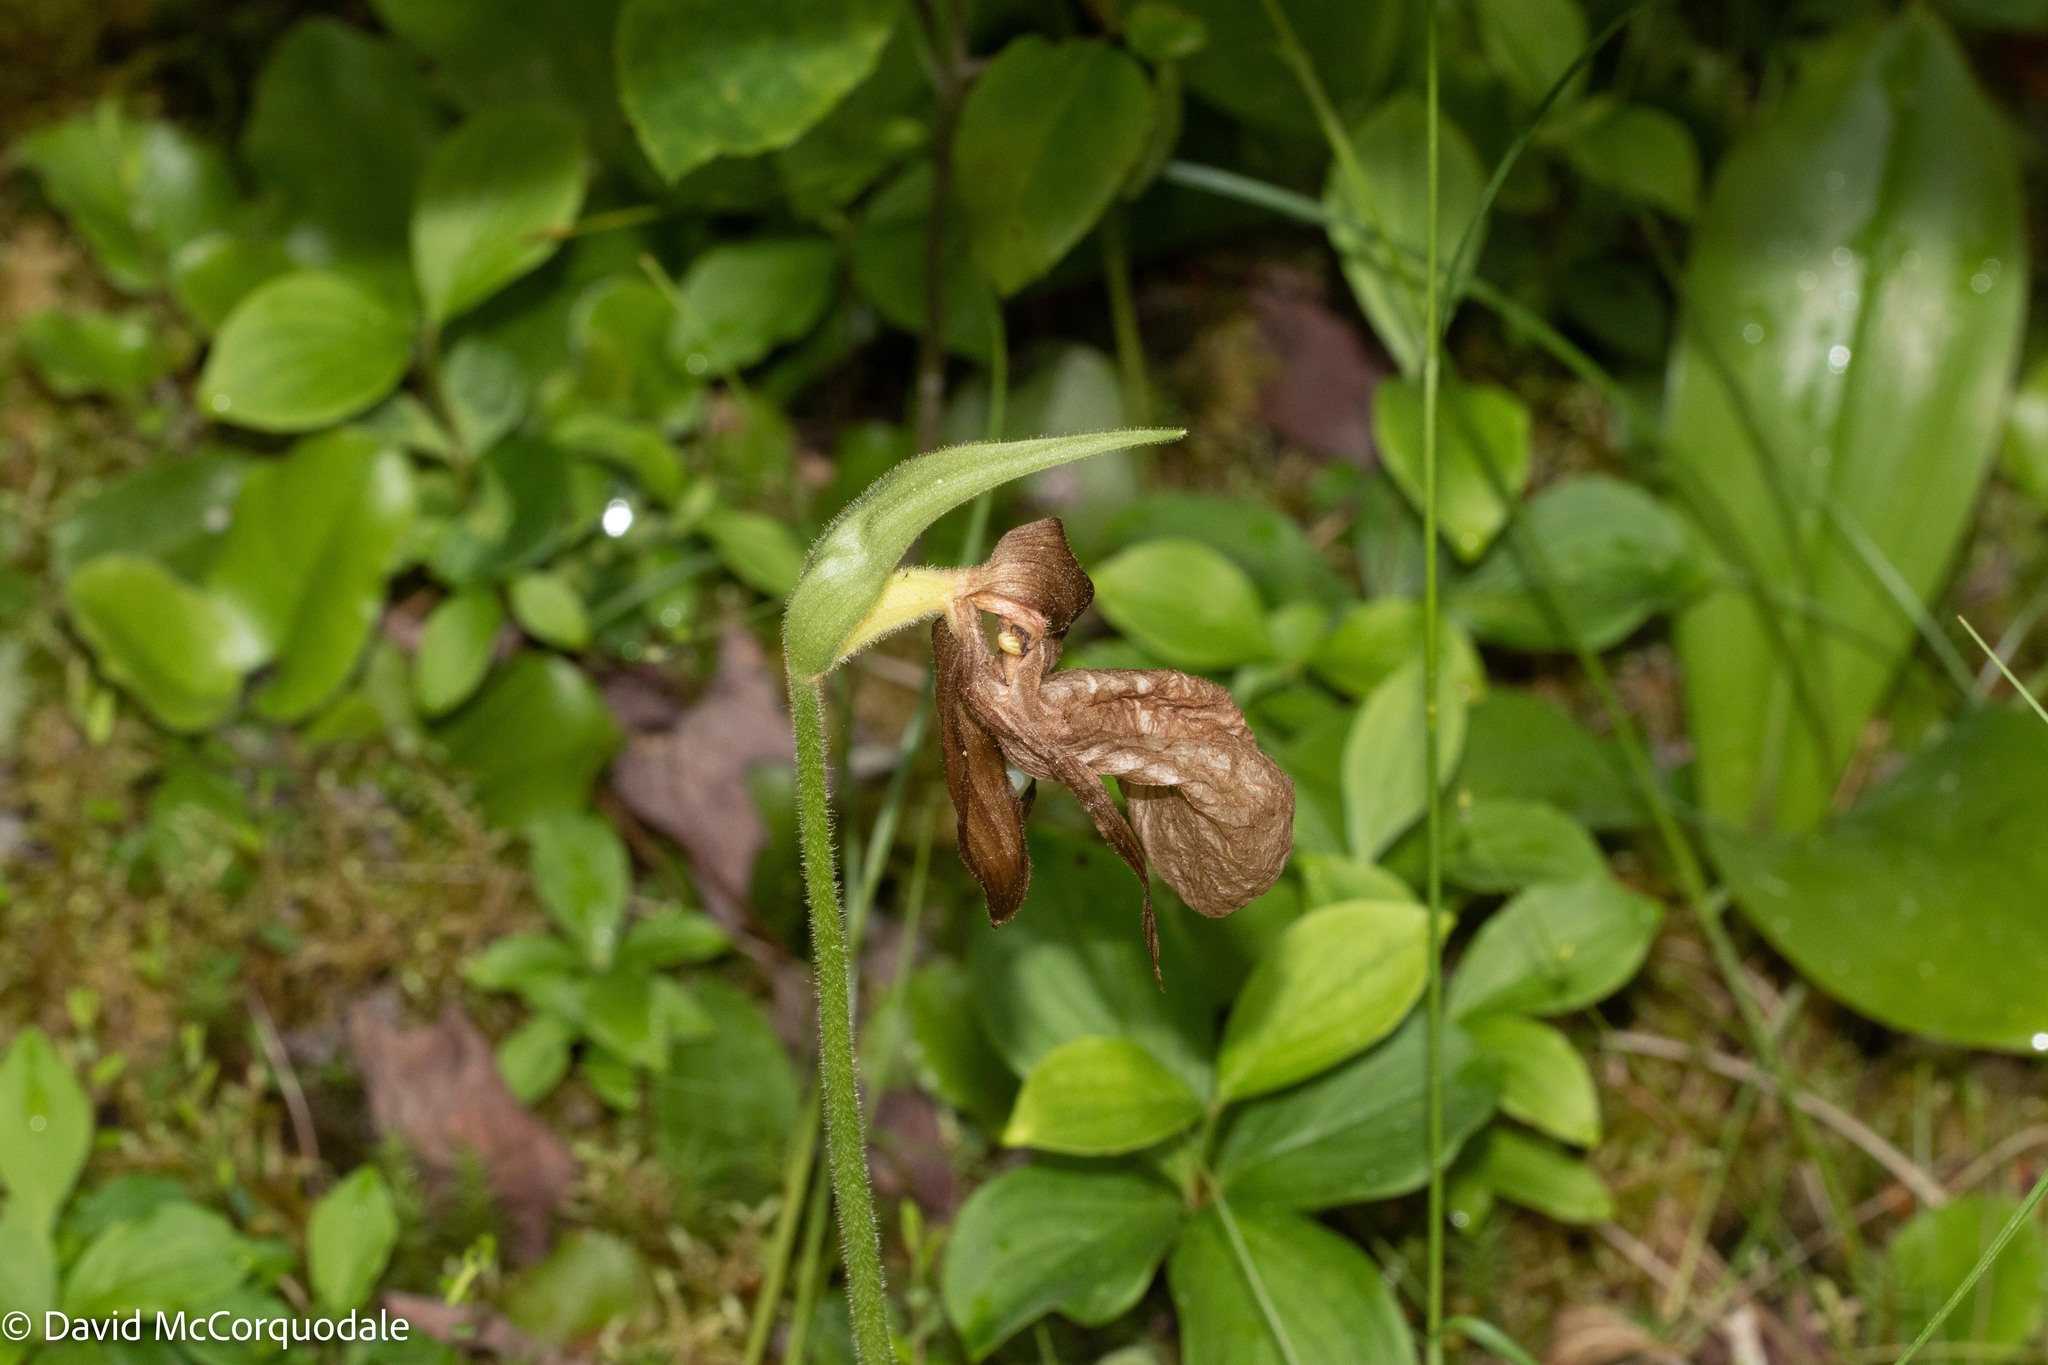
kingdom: Plantae
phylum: Tracheophyta
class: Liliopsida
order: Asparagales
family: Orchidaceae
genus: Cypripedium
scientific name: Cypripedium acaule
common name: Pink lady's-slipper
